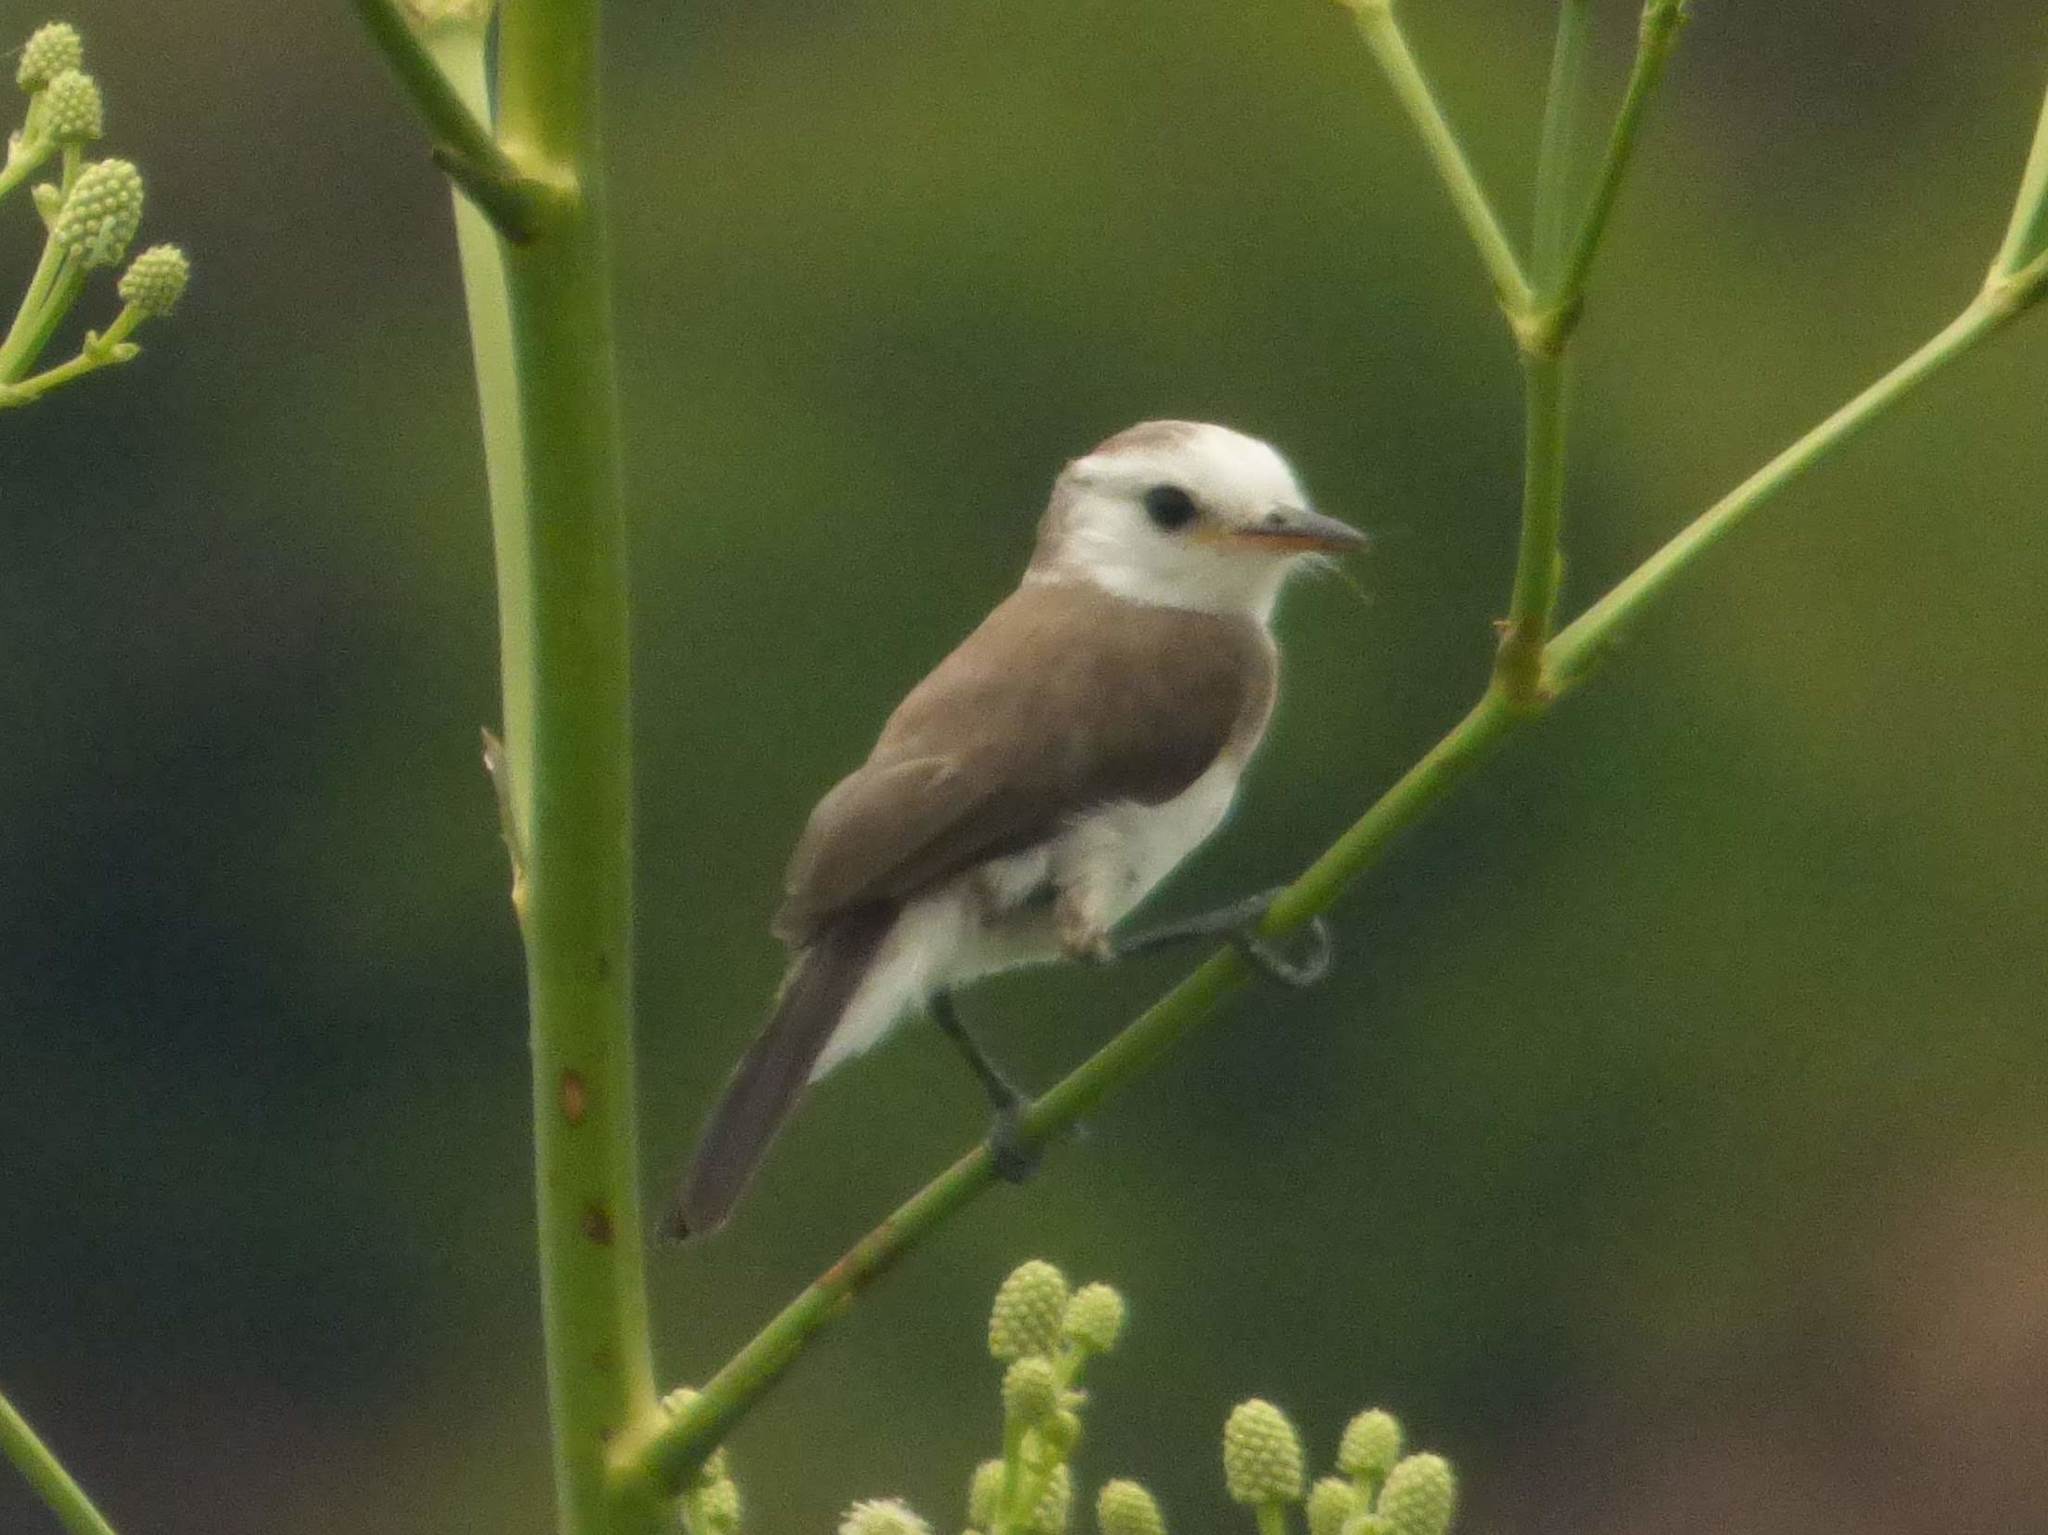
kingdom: Animalia
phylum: Chordata
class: Aves
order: Passeriformes
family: Tyrannidae
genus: Arundinicola
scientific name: Arundinicola leucocephala
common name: White-headed marsh tyrant
